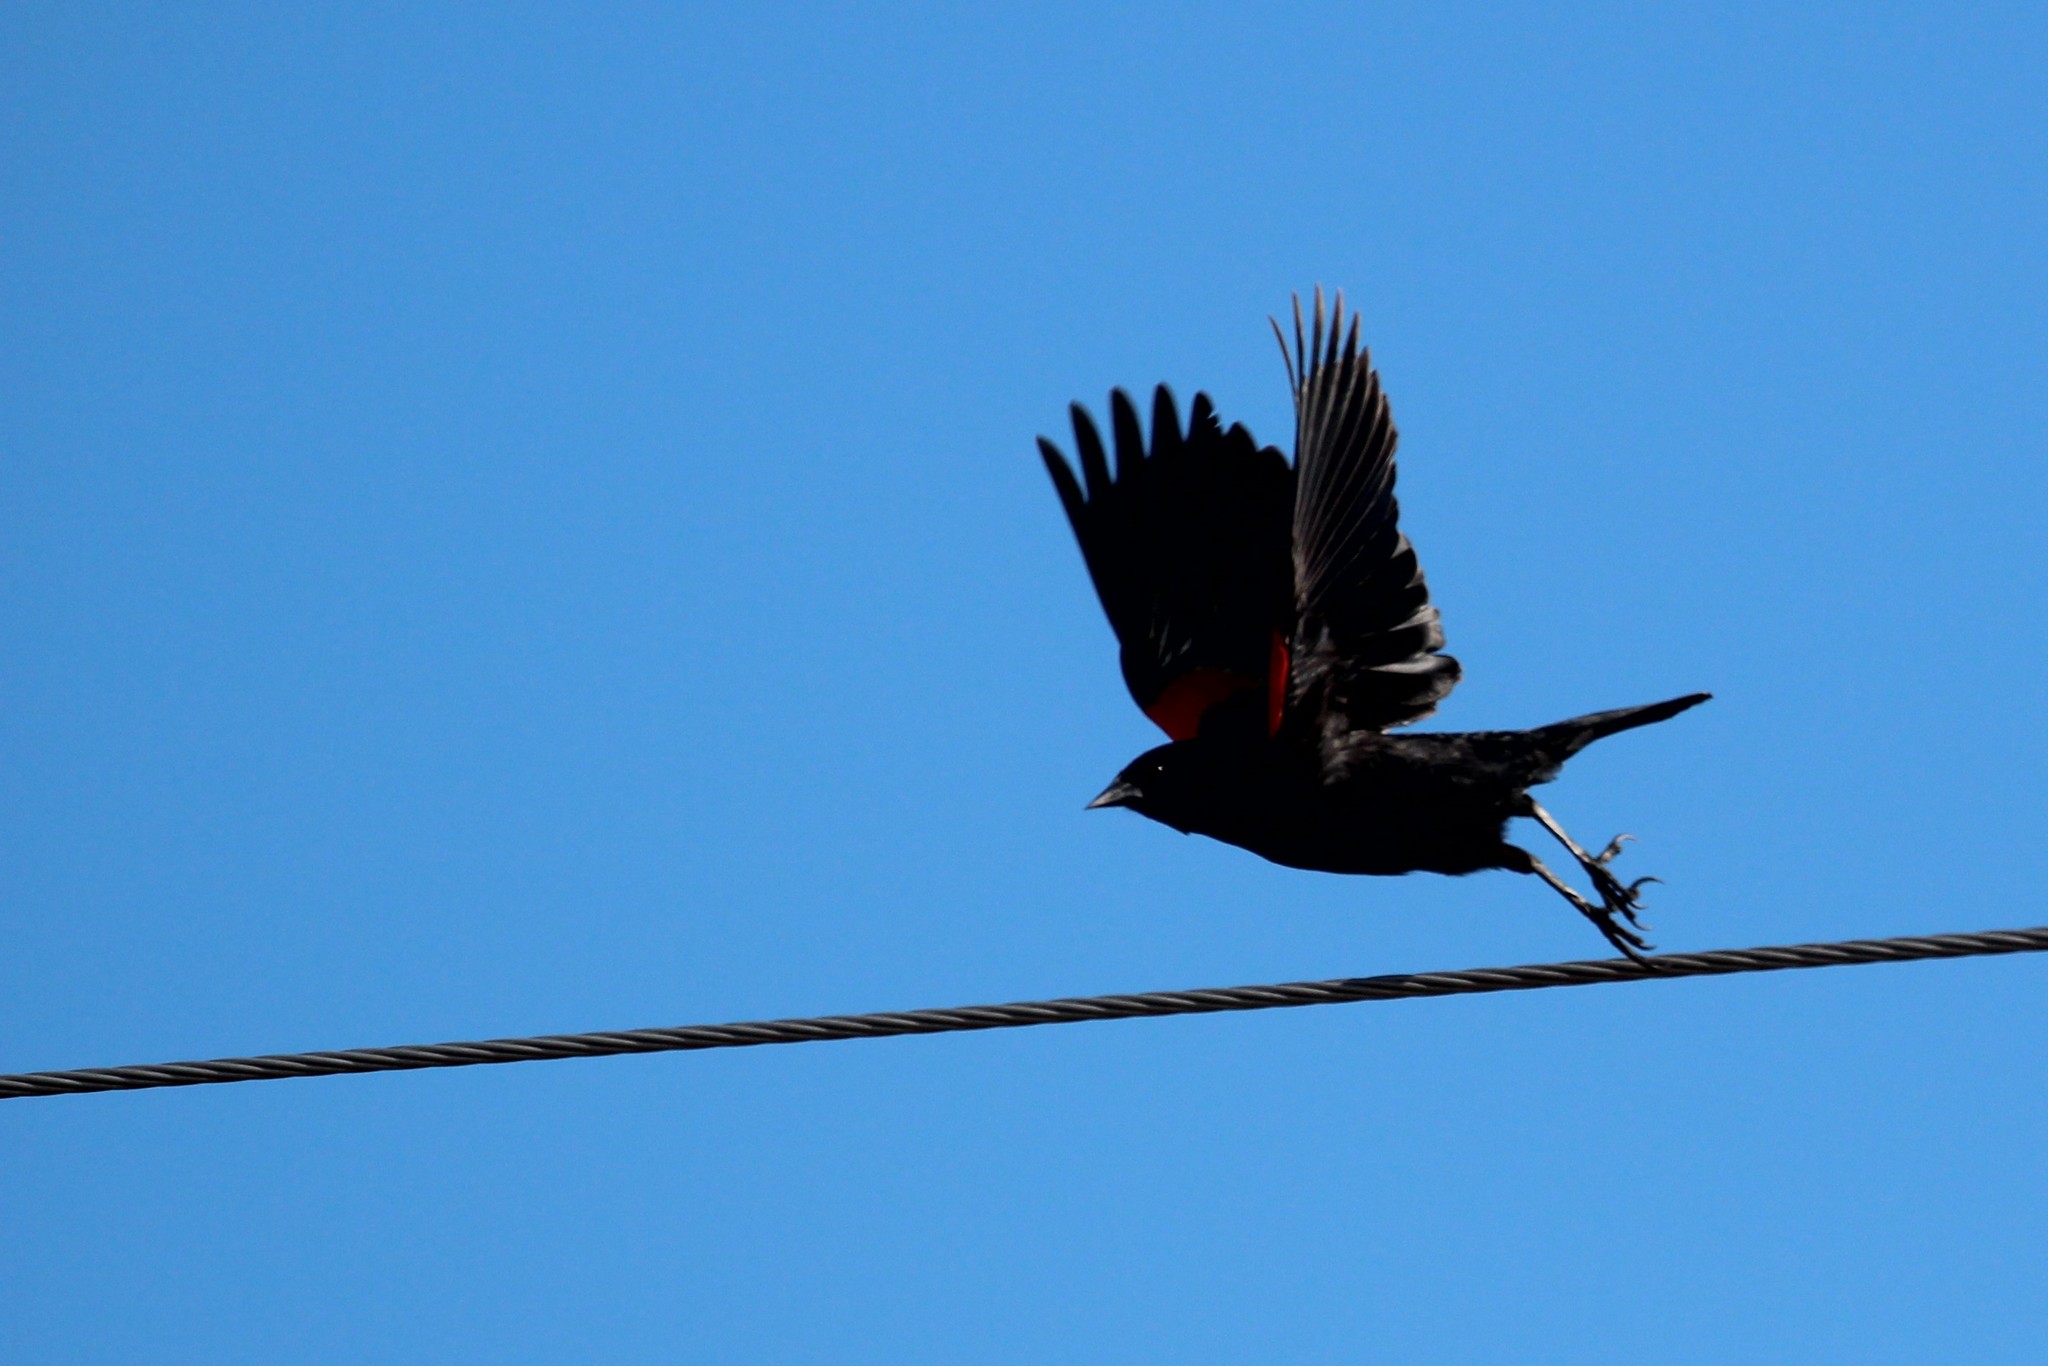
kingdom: Animalia
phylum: Chordata
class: Aves
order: Passeriformes
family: Icteridae
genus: Agelaius
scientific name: Agelaius phoeniceus
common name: Red-winged blackbird
